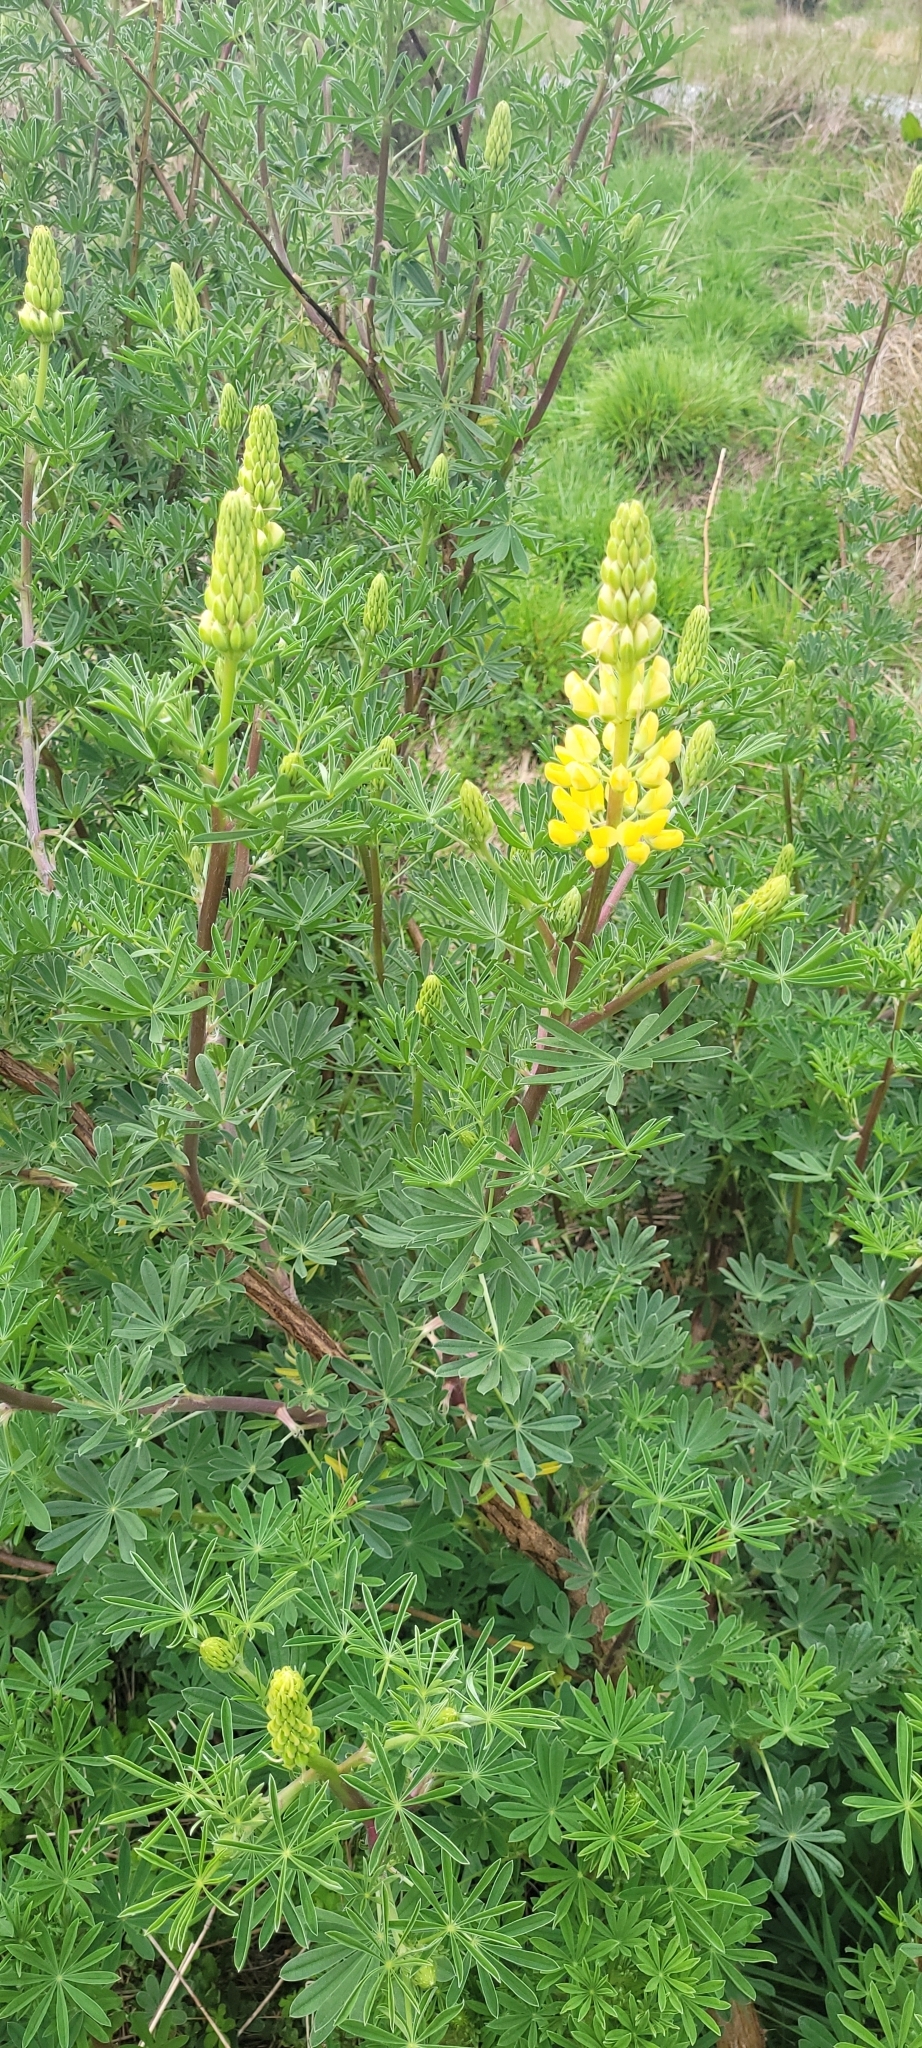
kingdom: Plantae
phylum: Tracheophyta
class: Magnoliopsida
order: Fabales
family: Fabaceae
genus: Lupinus
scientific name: Lupinus arboreus
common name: Yellow bush lupine
